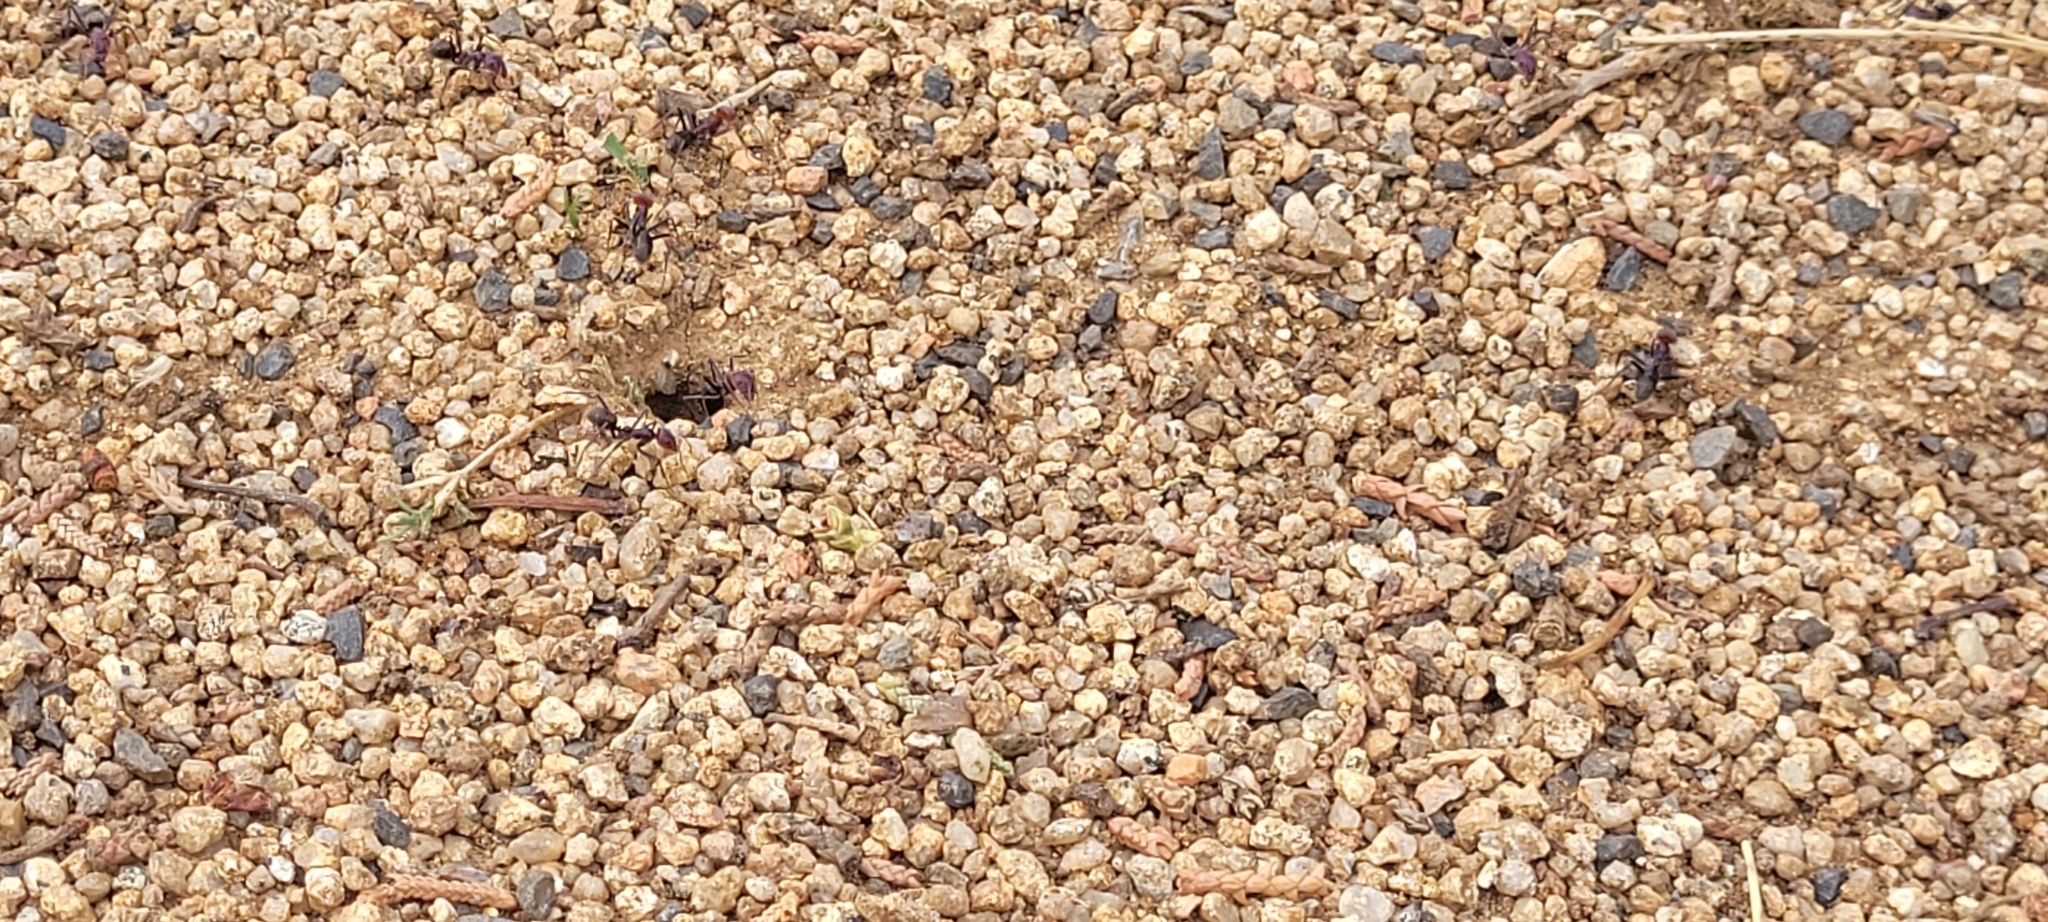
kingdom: Animalia
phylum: Arthropoda
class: Insecta
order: Hymenoptera
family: Formicidae
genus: Iridomyrmex
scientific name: Iridomyrmex purpureus
